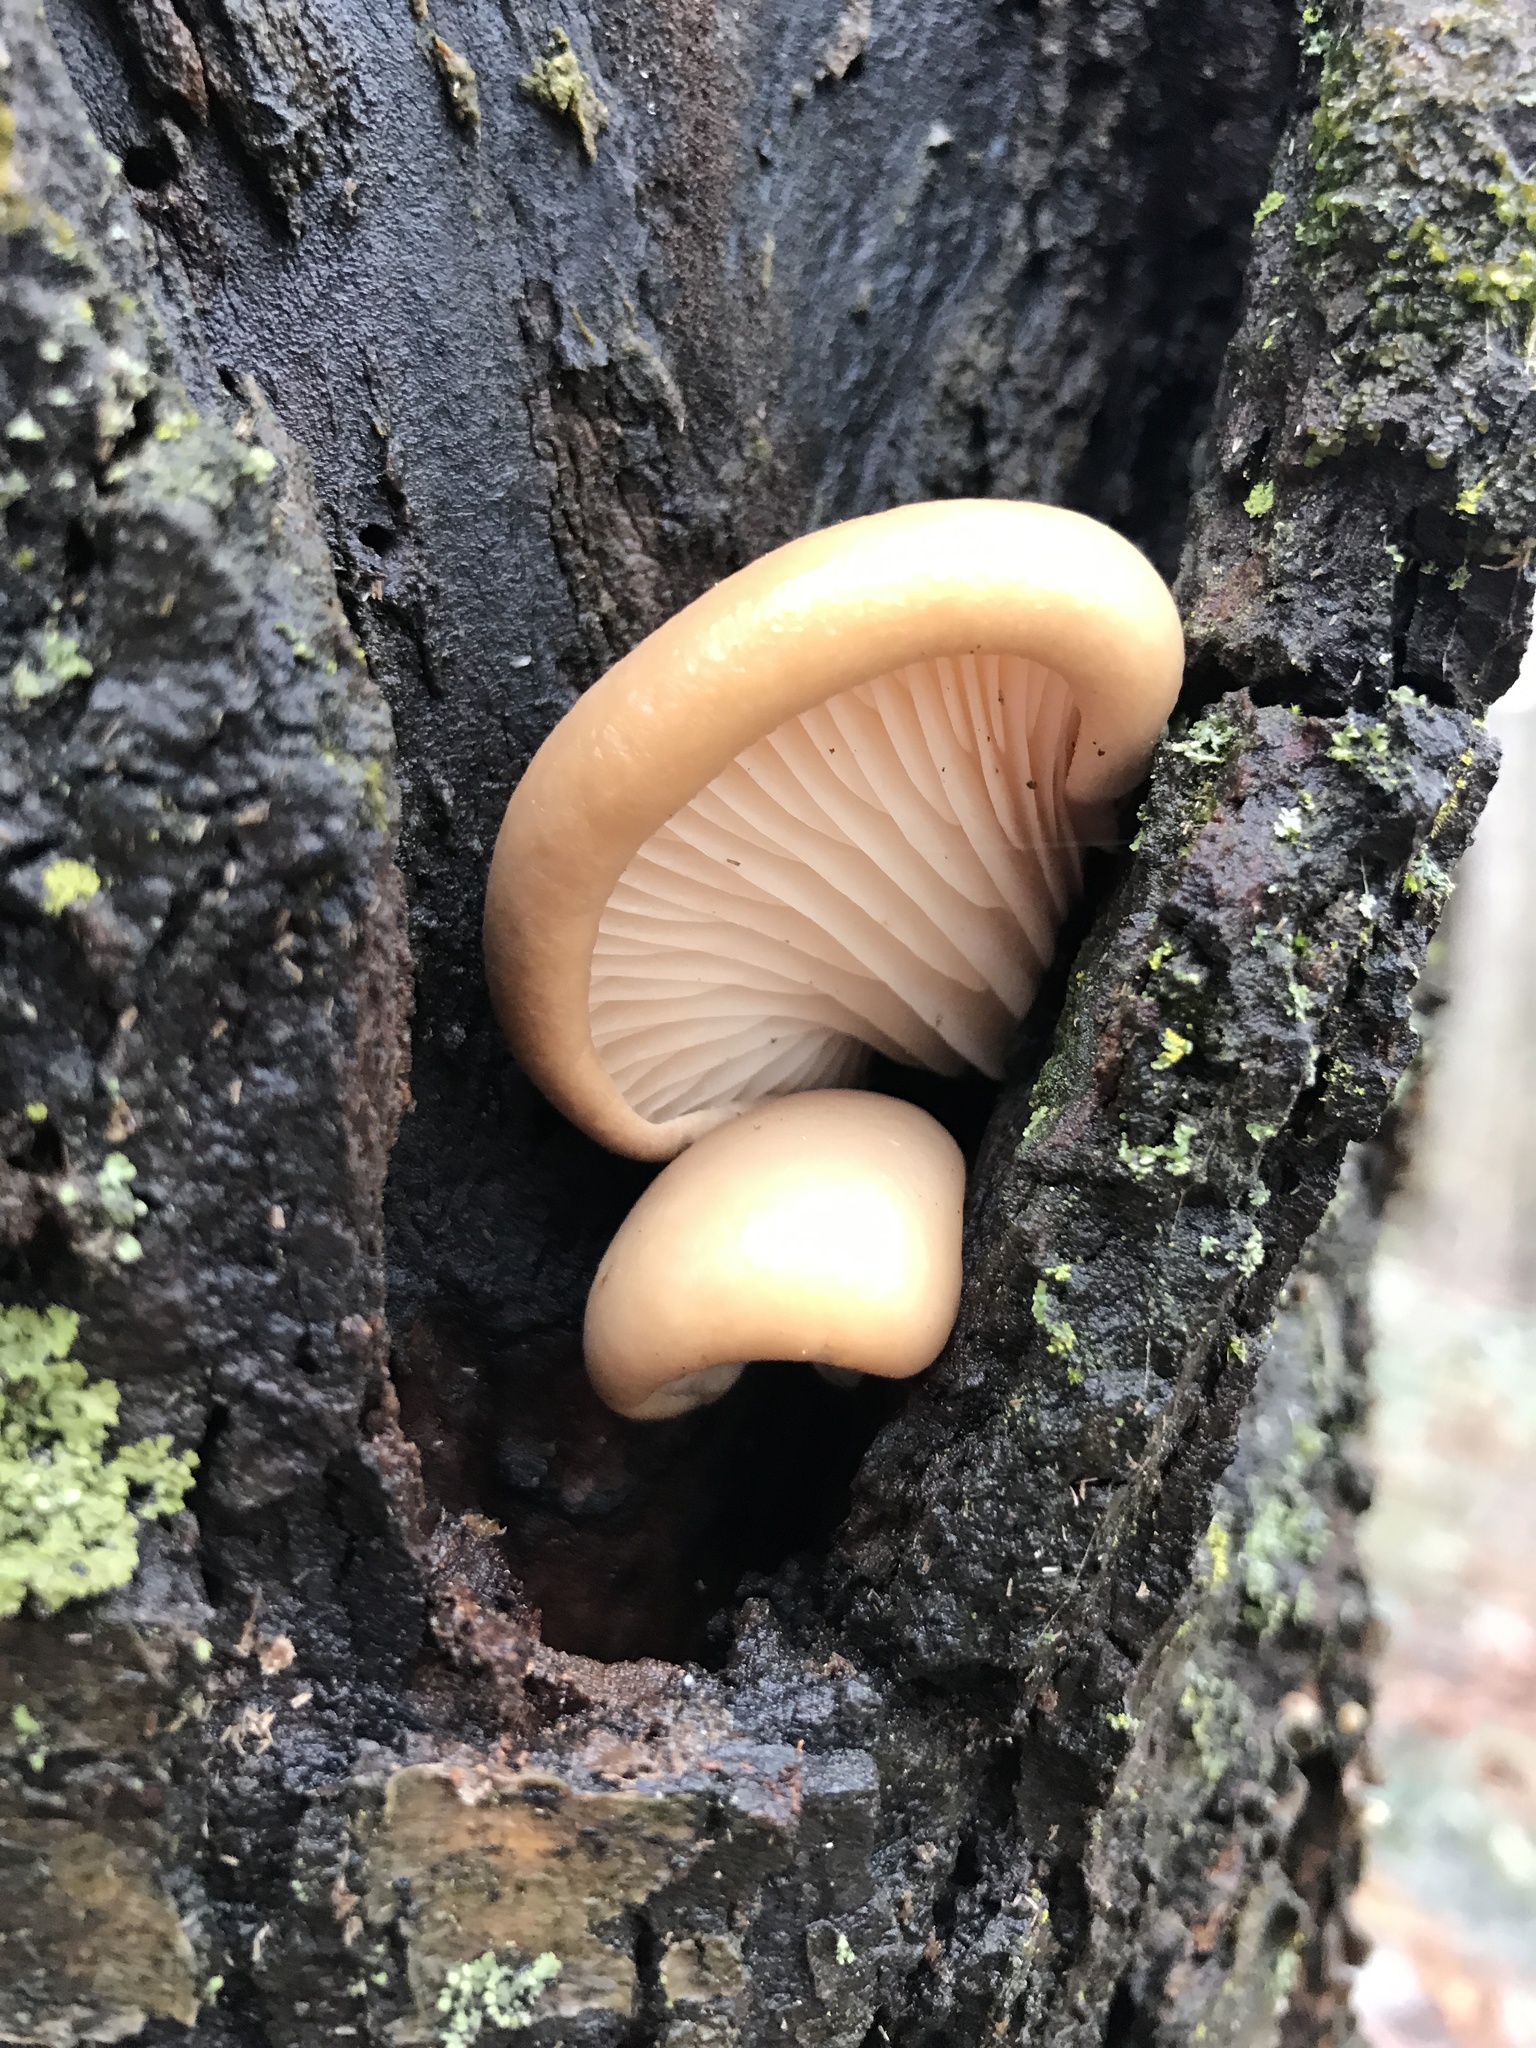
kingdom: Fungi
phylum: Basidiomycota
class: Agaricomycetes
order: Agaricales
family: Pleurotaceae
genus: Pleurotus
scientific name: Pleurotus ostreatus
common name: Oyster mushroom
